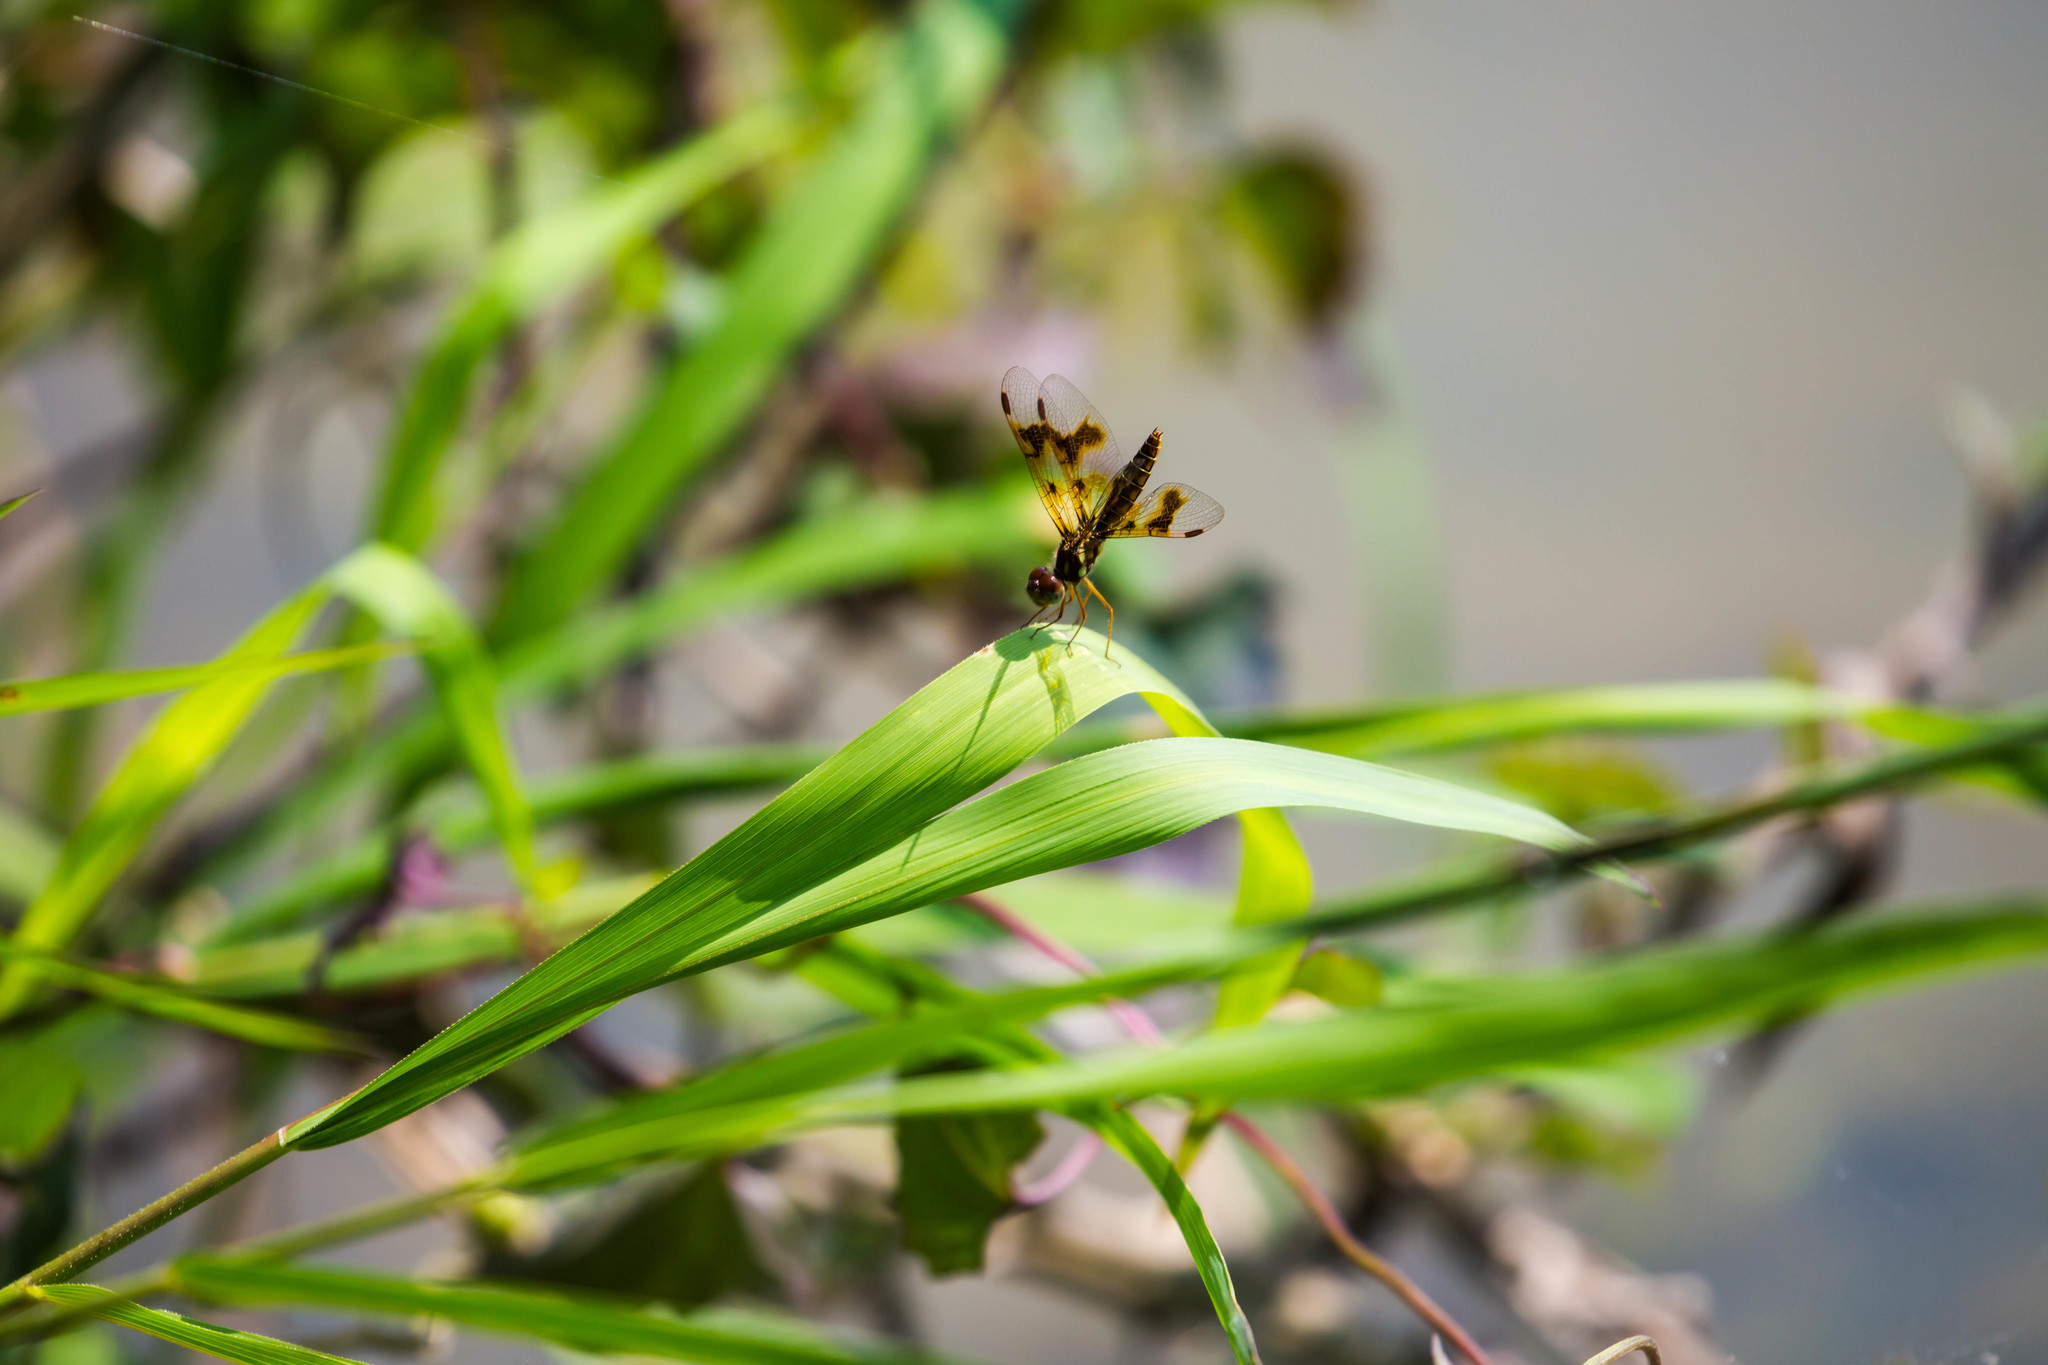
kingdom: Animalia
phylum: Arthropoda
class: Insecta
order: Odonata
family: Libellulidae
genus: Perithemis
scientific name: Perithemis tenera
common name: Eastern amberwing
